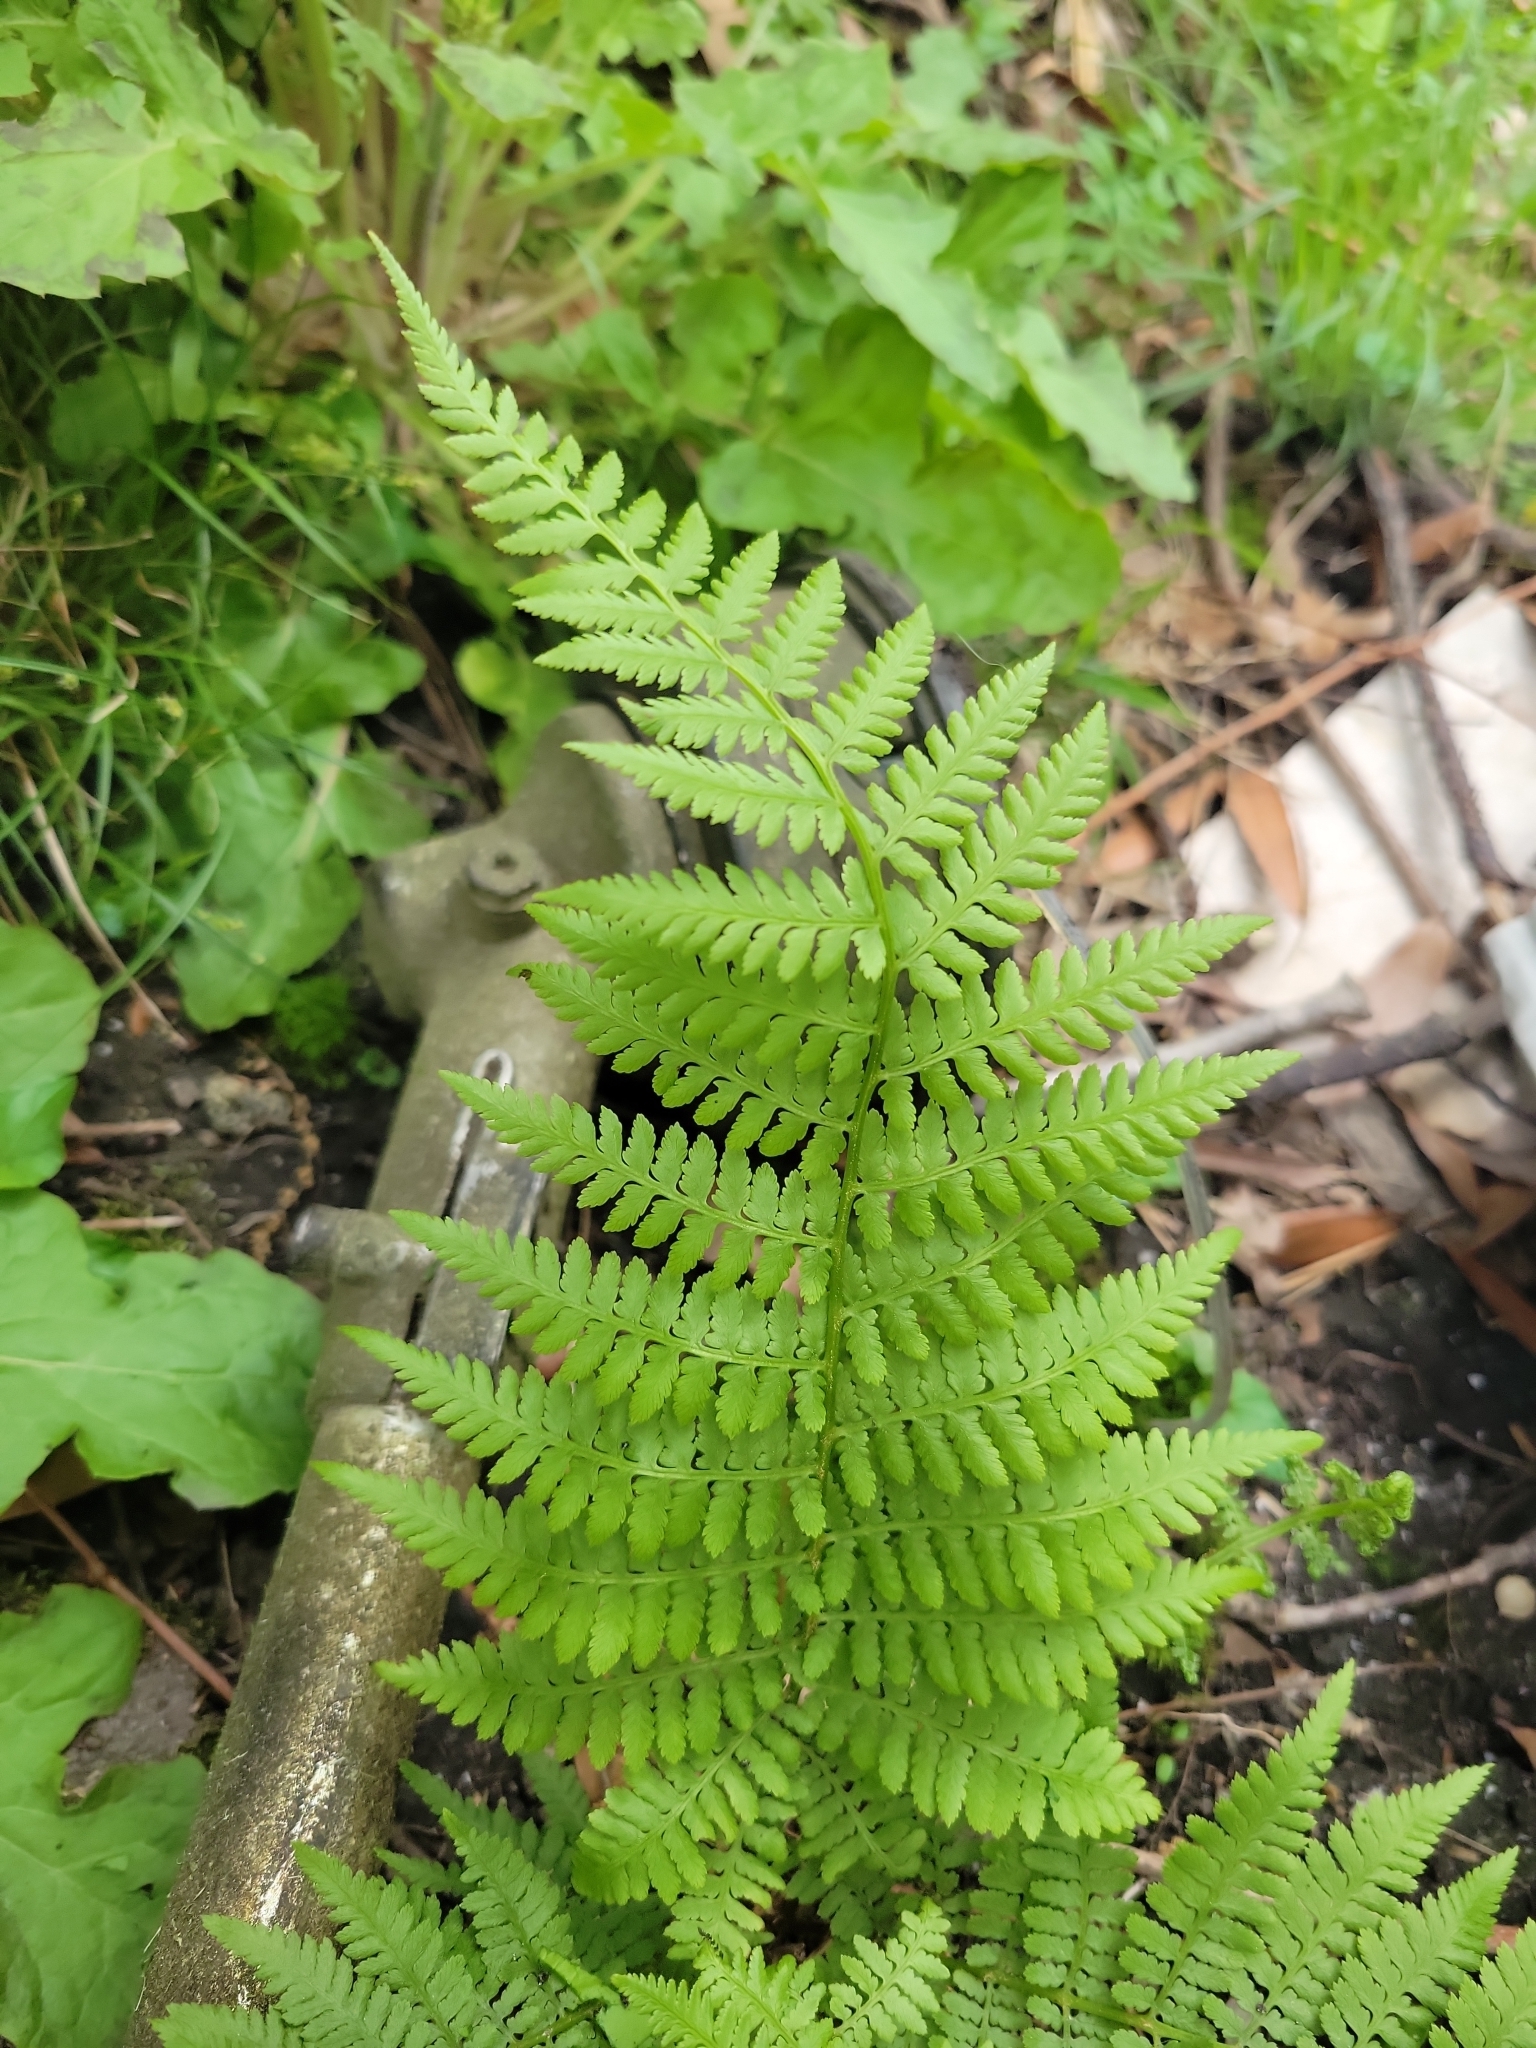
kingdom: Plantae
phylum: Tracheophyta
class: Polypodiopsida
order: Polypodiales
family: Athyriaceae
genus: Athyrium
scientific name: Athyrium asplenioides
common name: Southern lady fern
